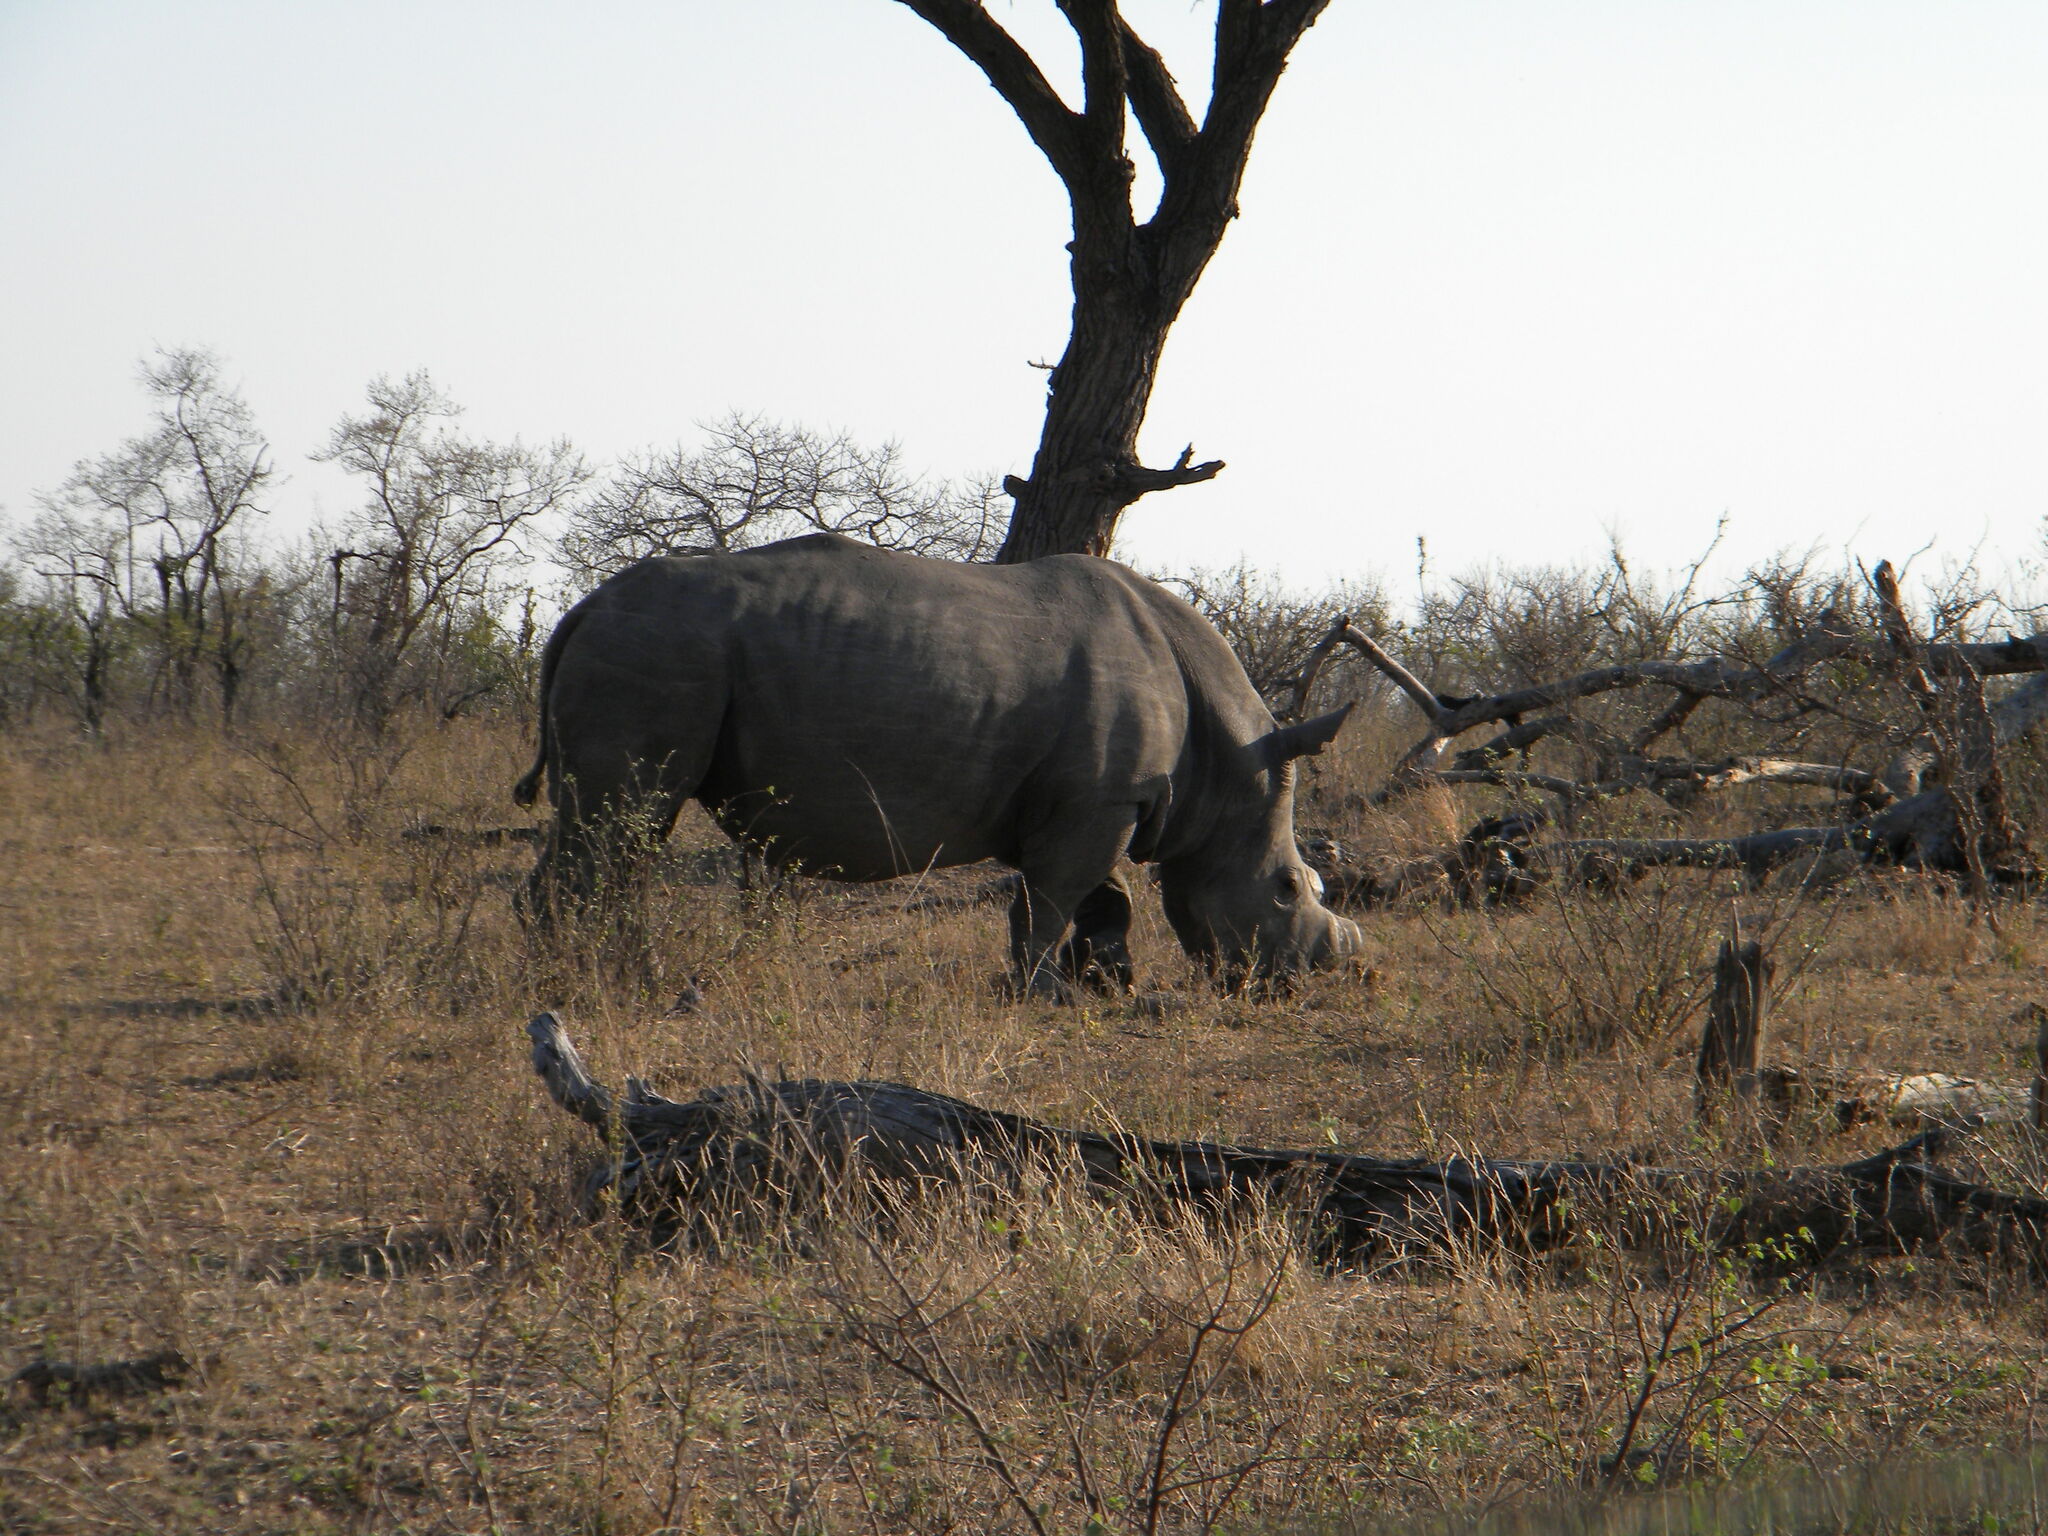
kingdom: Animalia
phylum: Chordata
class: Mammalia
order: Perissodactyla
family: Rhinocerotidae
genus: Ceratotherium
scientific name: Ceratotherium simum
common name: White rhinoceros
